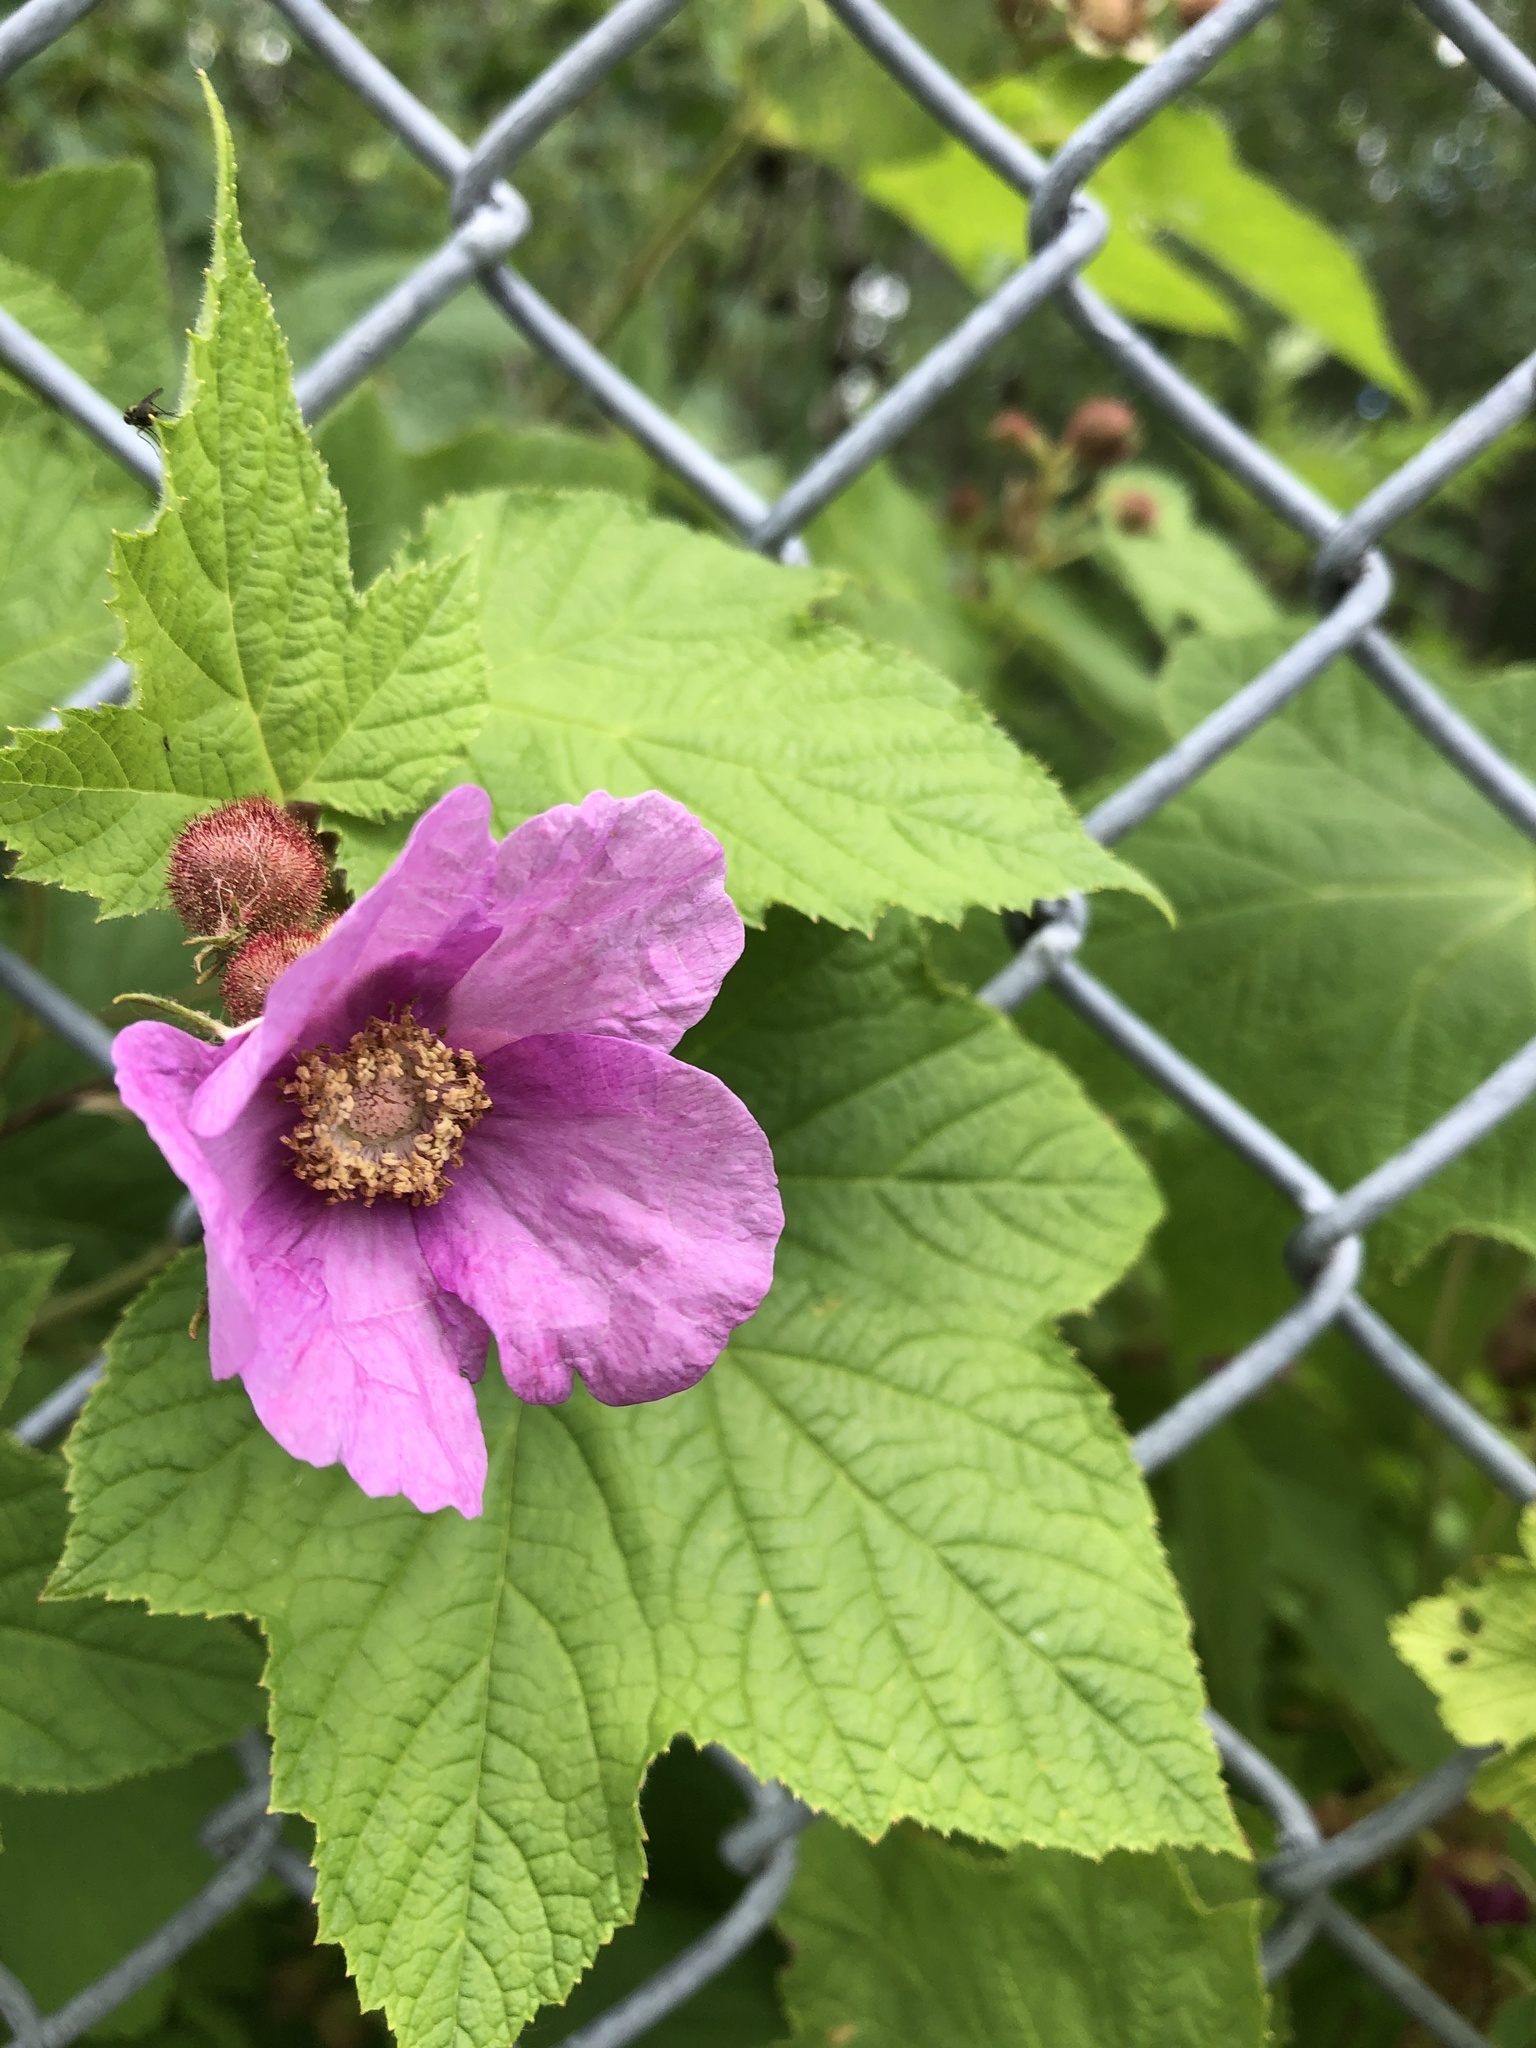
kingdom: Plantae
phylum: Tracheophyta
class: Magnoliopsida
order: Rosales
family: Rosaceae
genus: Rubus
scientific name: Rubus odoratus
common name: Purple-flowered raspberry
